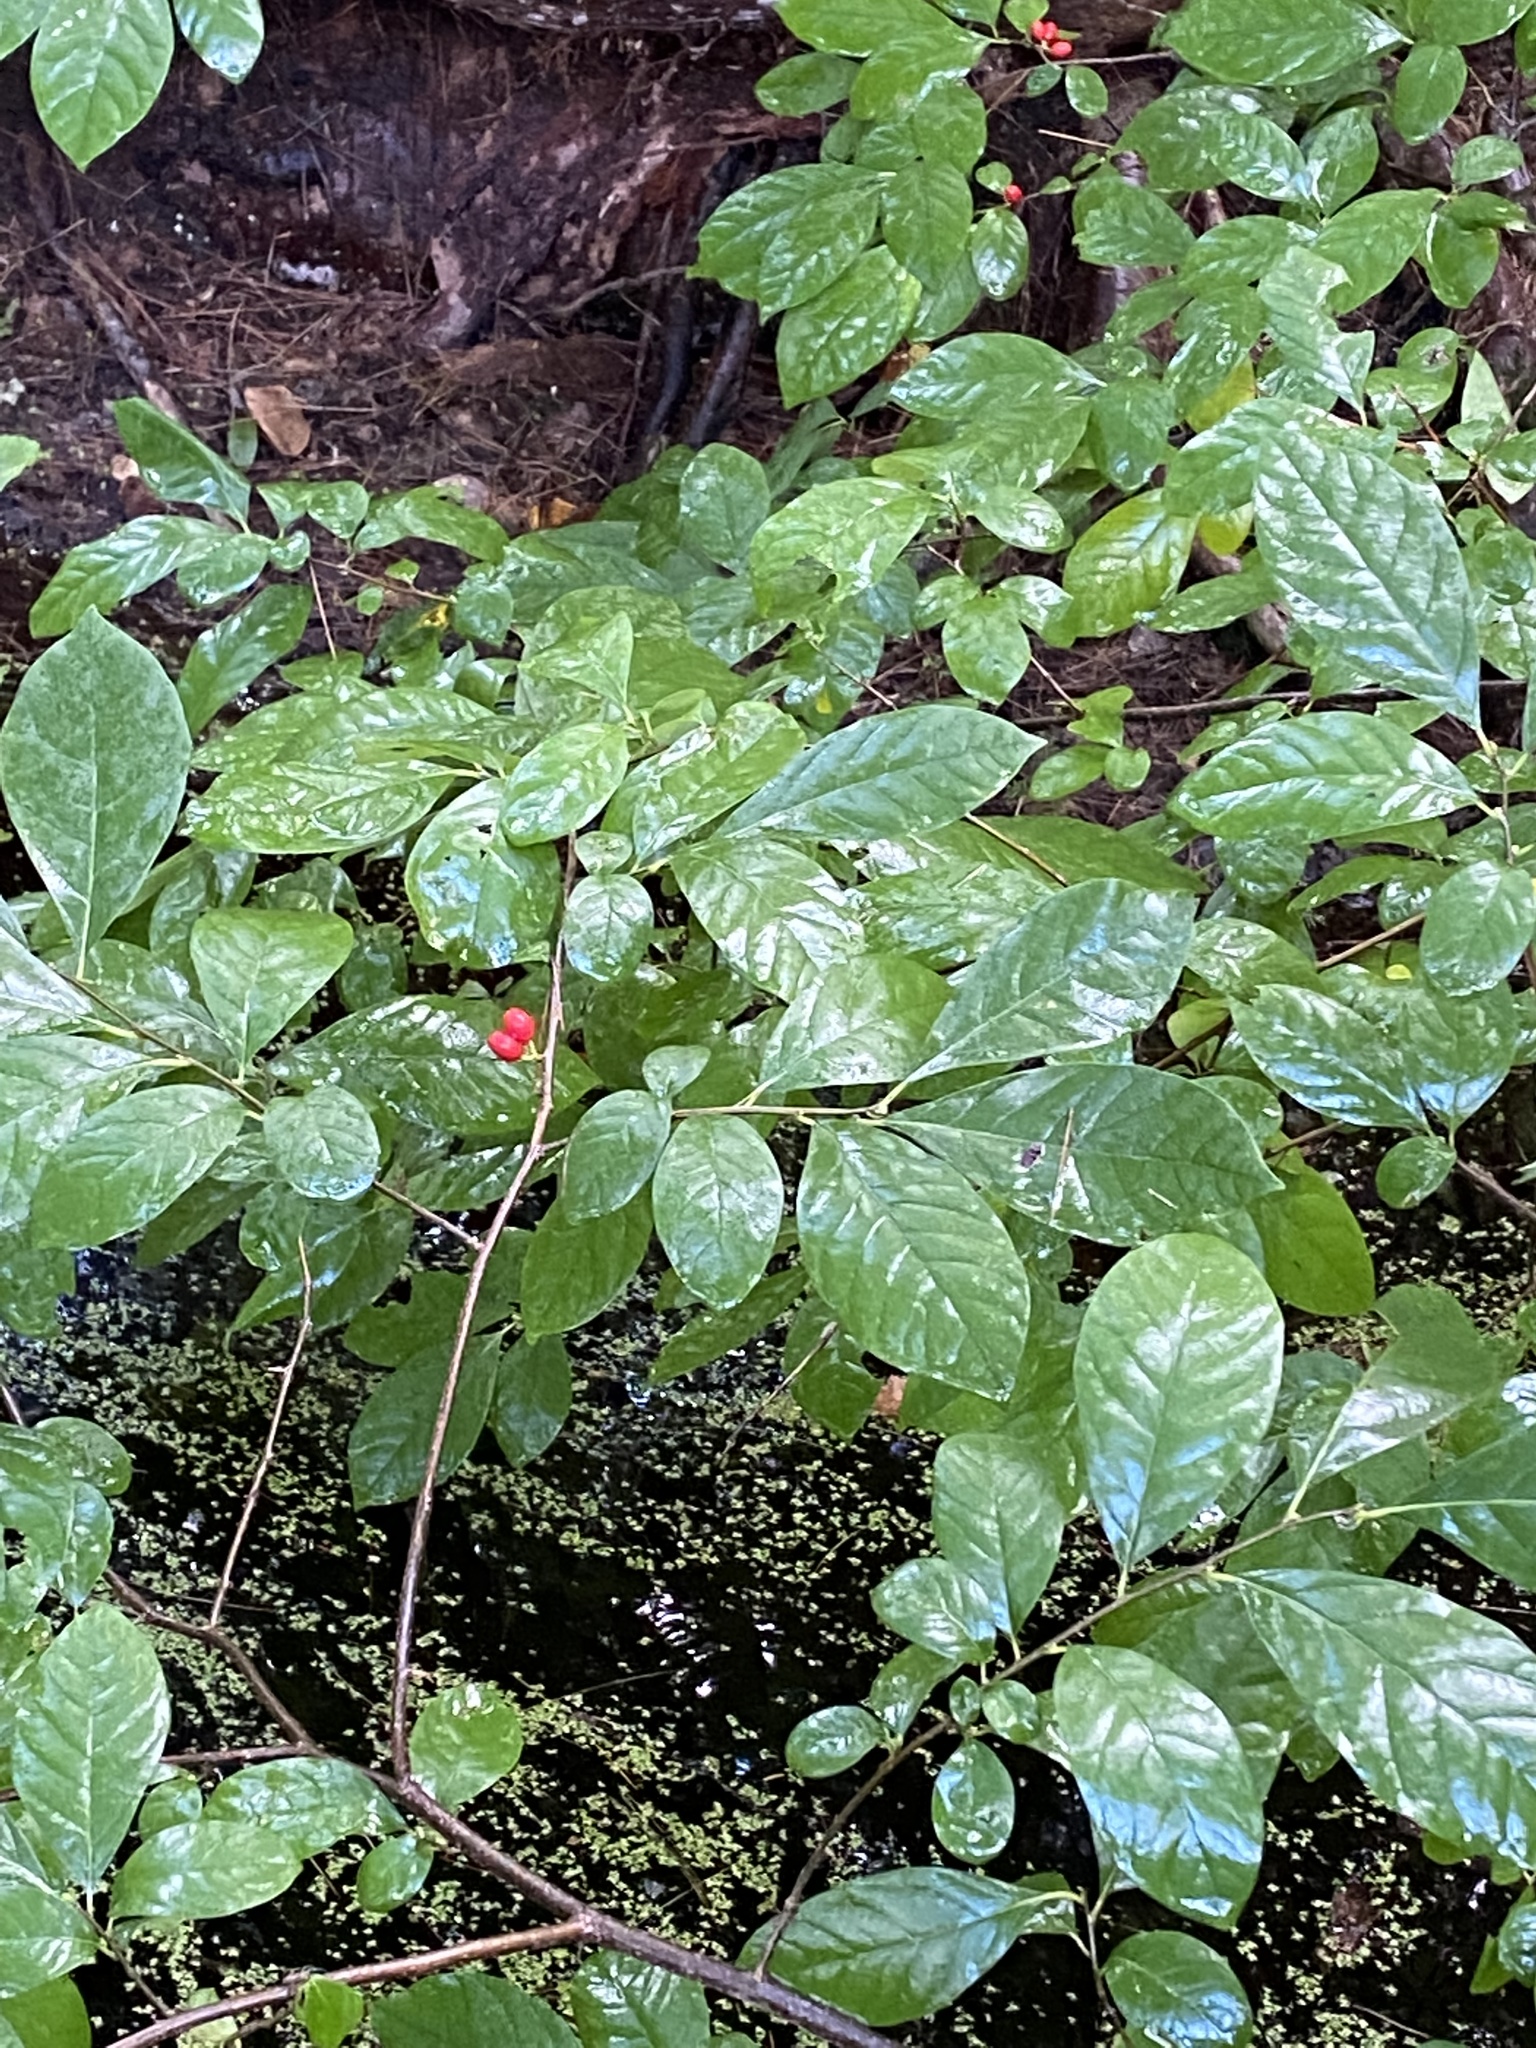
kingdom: Plantae
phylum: Tracheophyta
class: Magnoliopsida
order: Laurales
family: Lauraceae
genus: Lindera
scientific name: Lindera benzoin
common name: Spicebush
